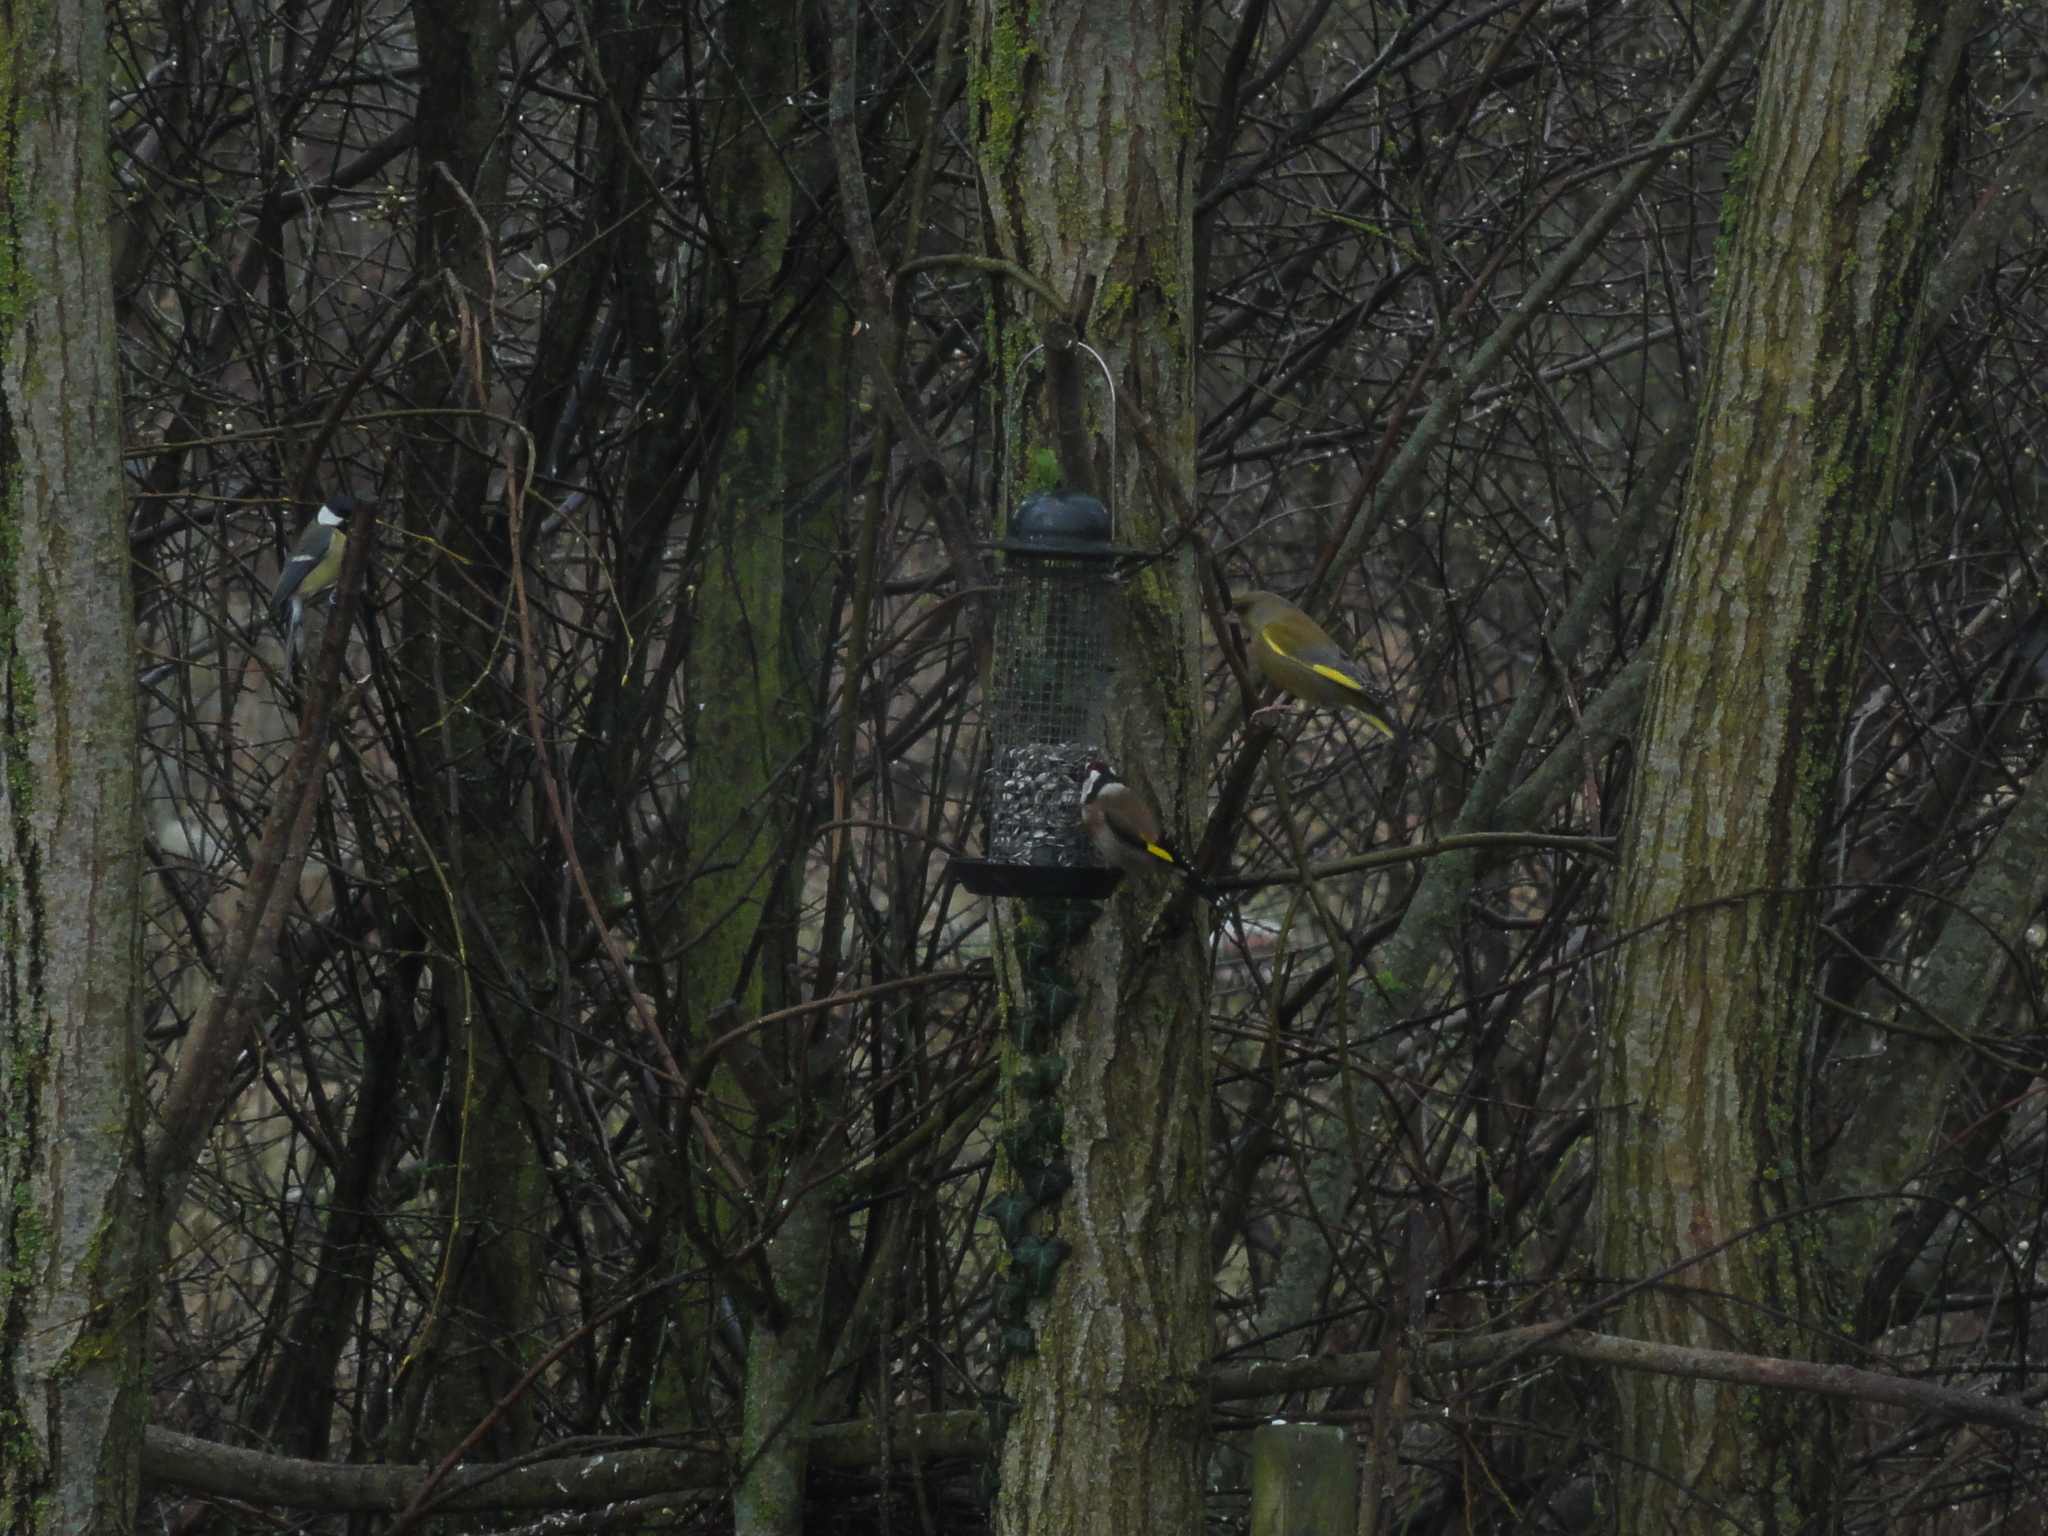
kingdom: Animalia
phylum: Chordata
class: Aves
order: Passeriformes
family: Paridae
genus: Parus
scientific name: Parus major
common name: Great tit
